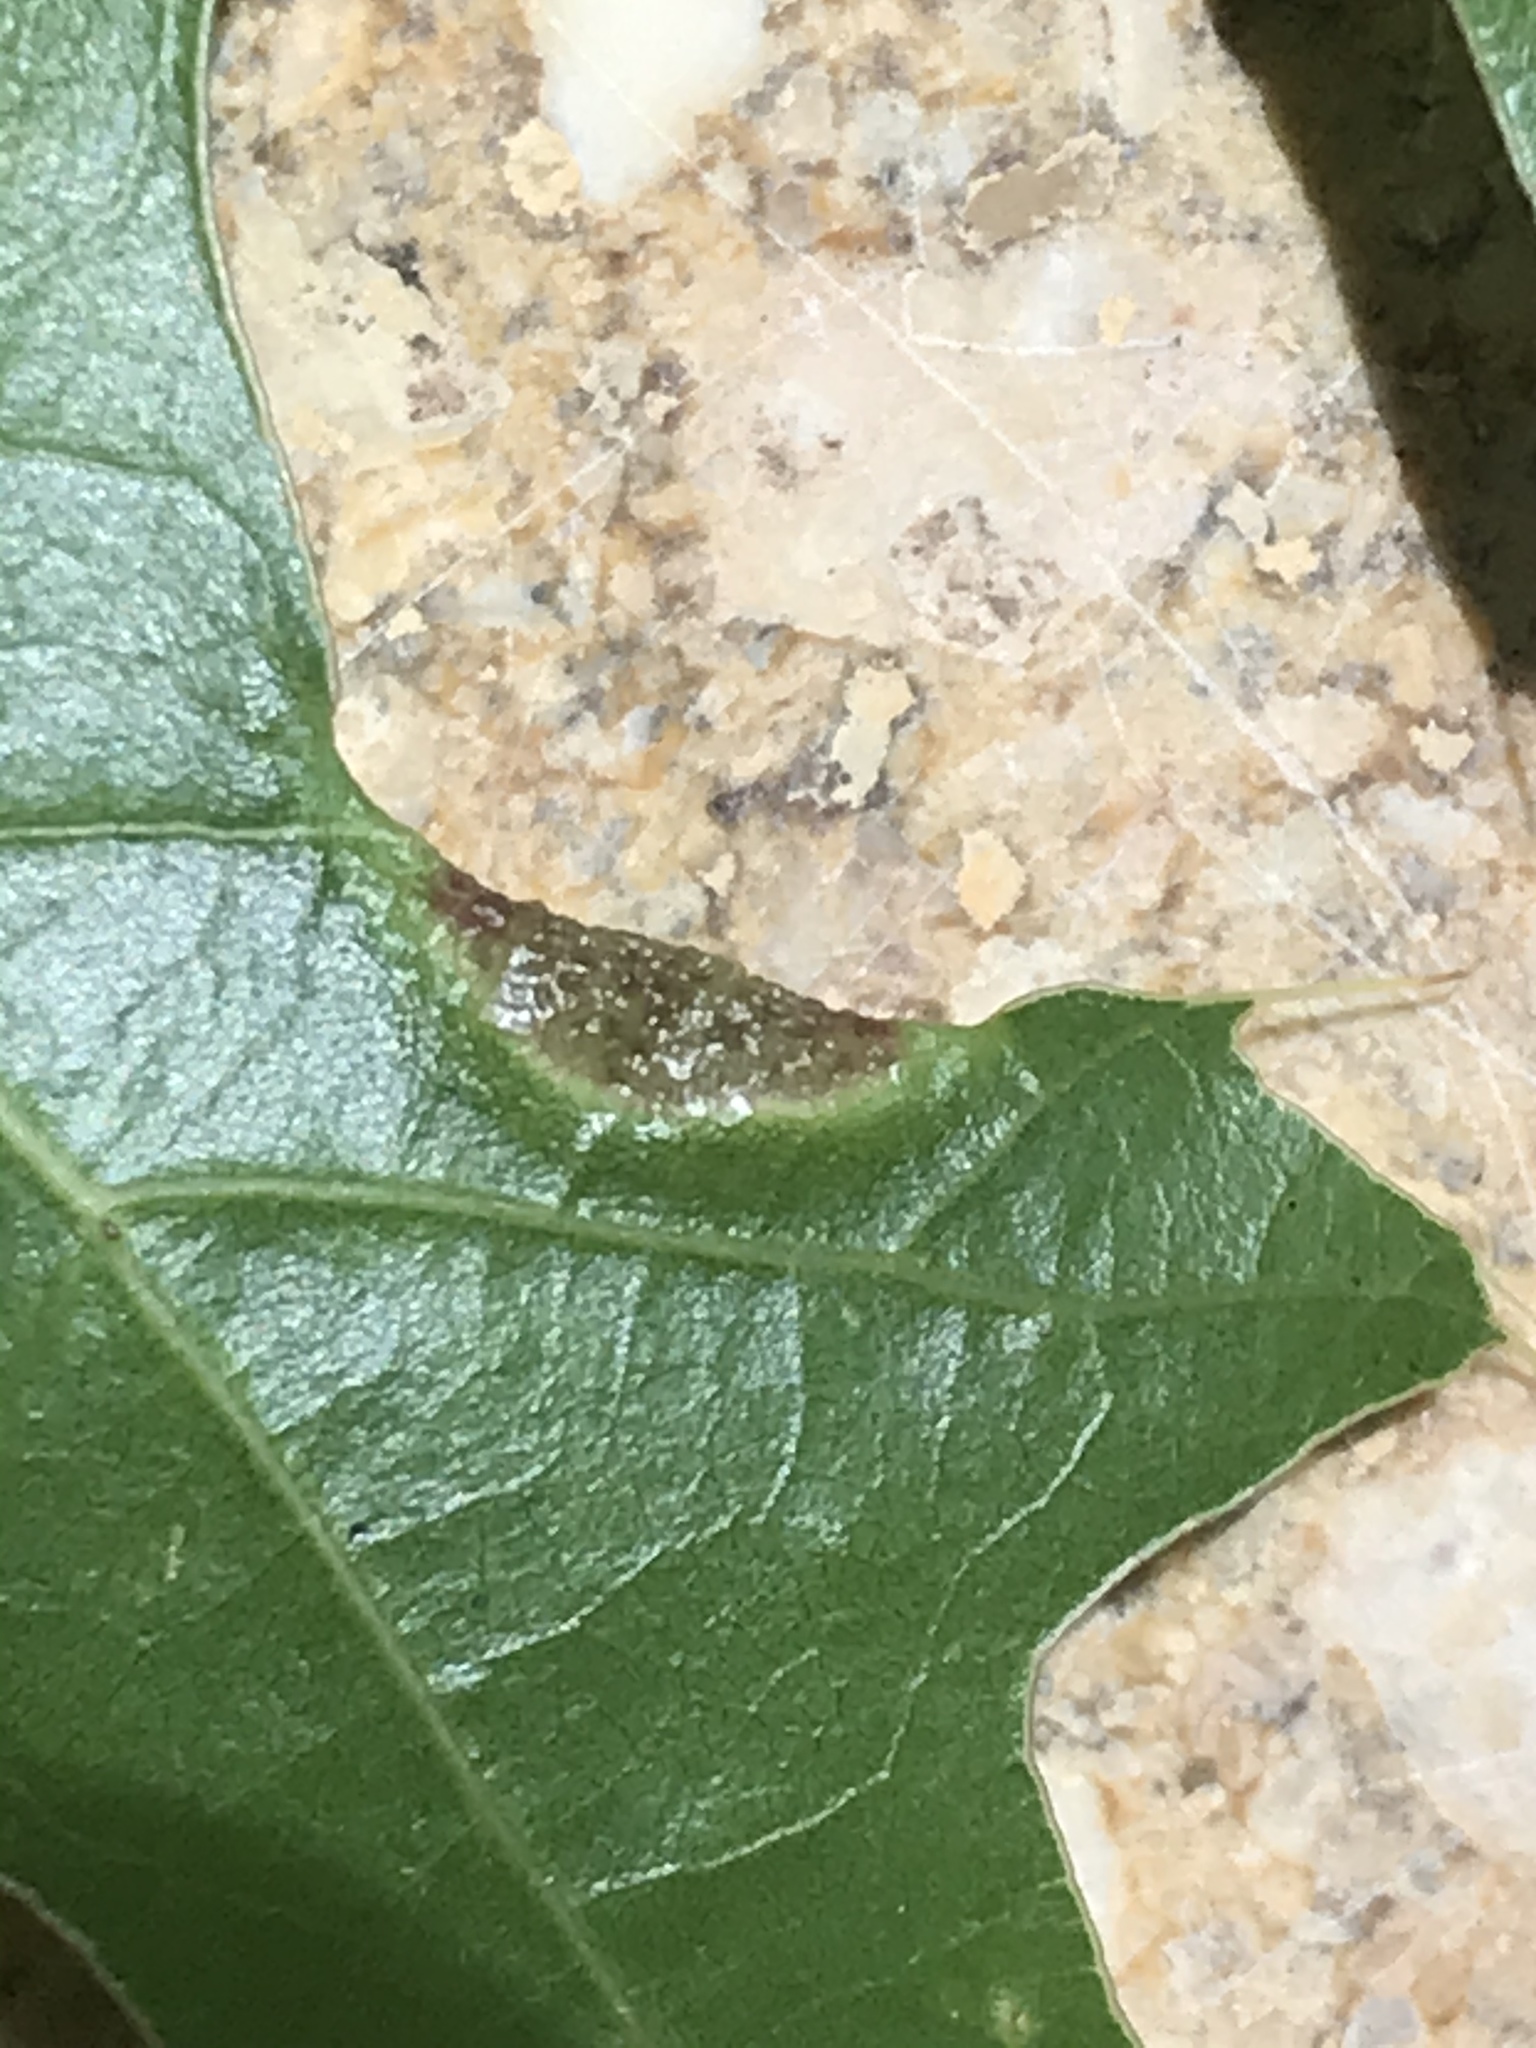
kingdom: Animalia
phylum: Arthropoda
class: Insecta
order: Diptera
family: Cecidomyiidae
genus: Macrodiplosis
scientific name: Macrodiplosis erubescens
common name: Marginal leaf fold gall midge
